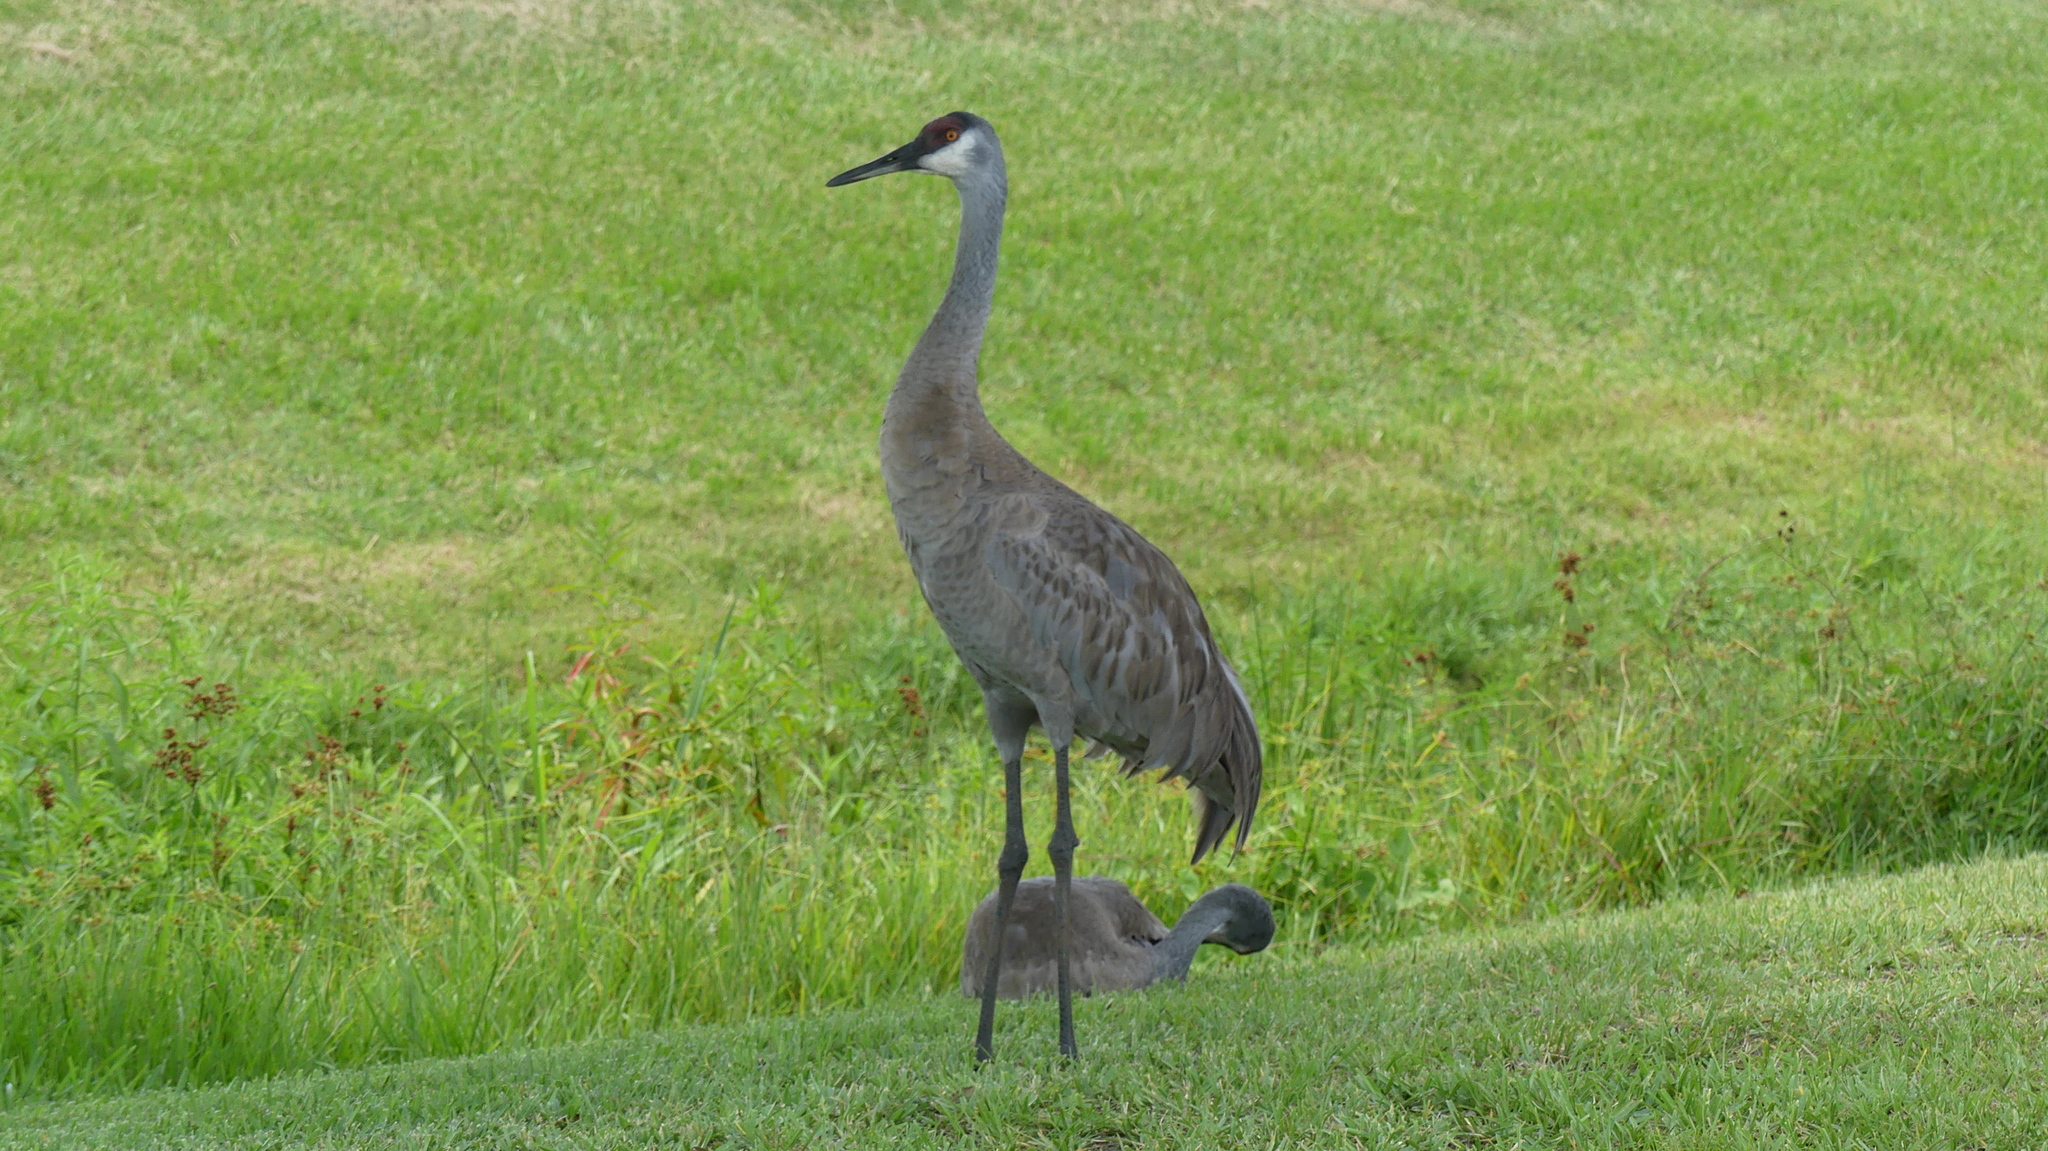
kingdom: Animalia
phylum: Chordata
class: Aves
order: Gruiformes
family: Gruidae
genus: Grus
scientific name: Grus canadensis
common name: Sandhill crane
